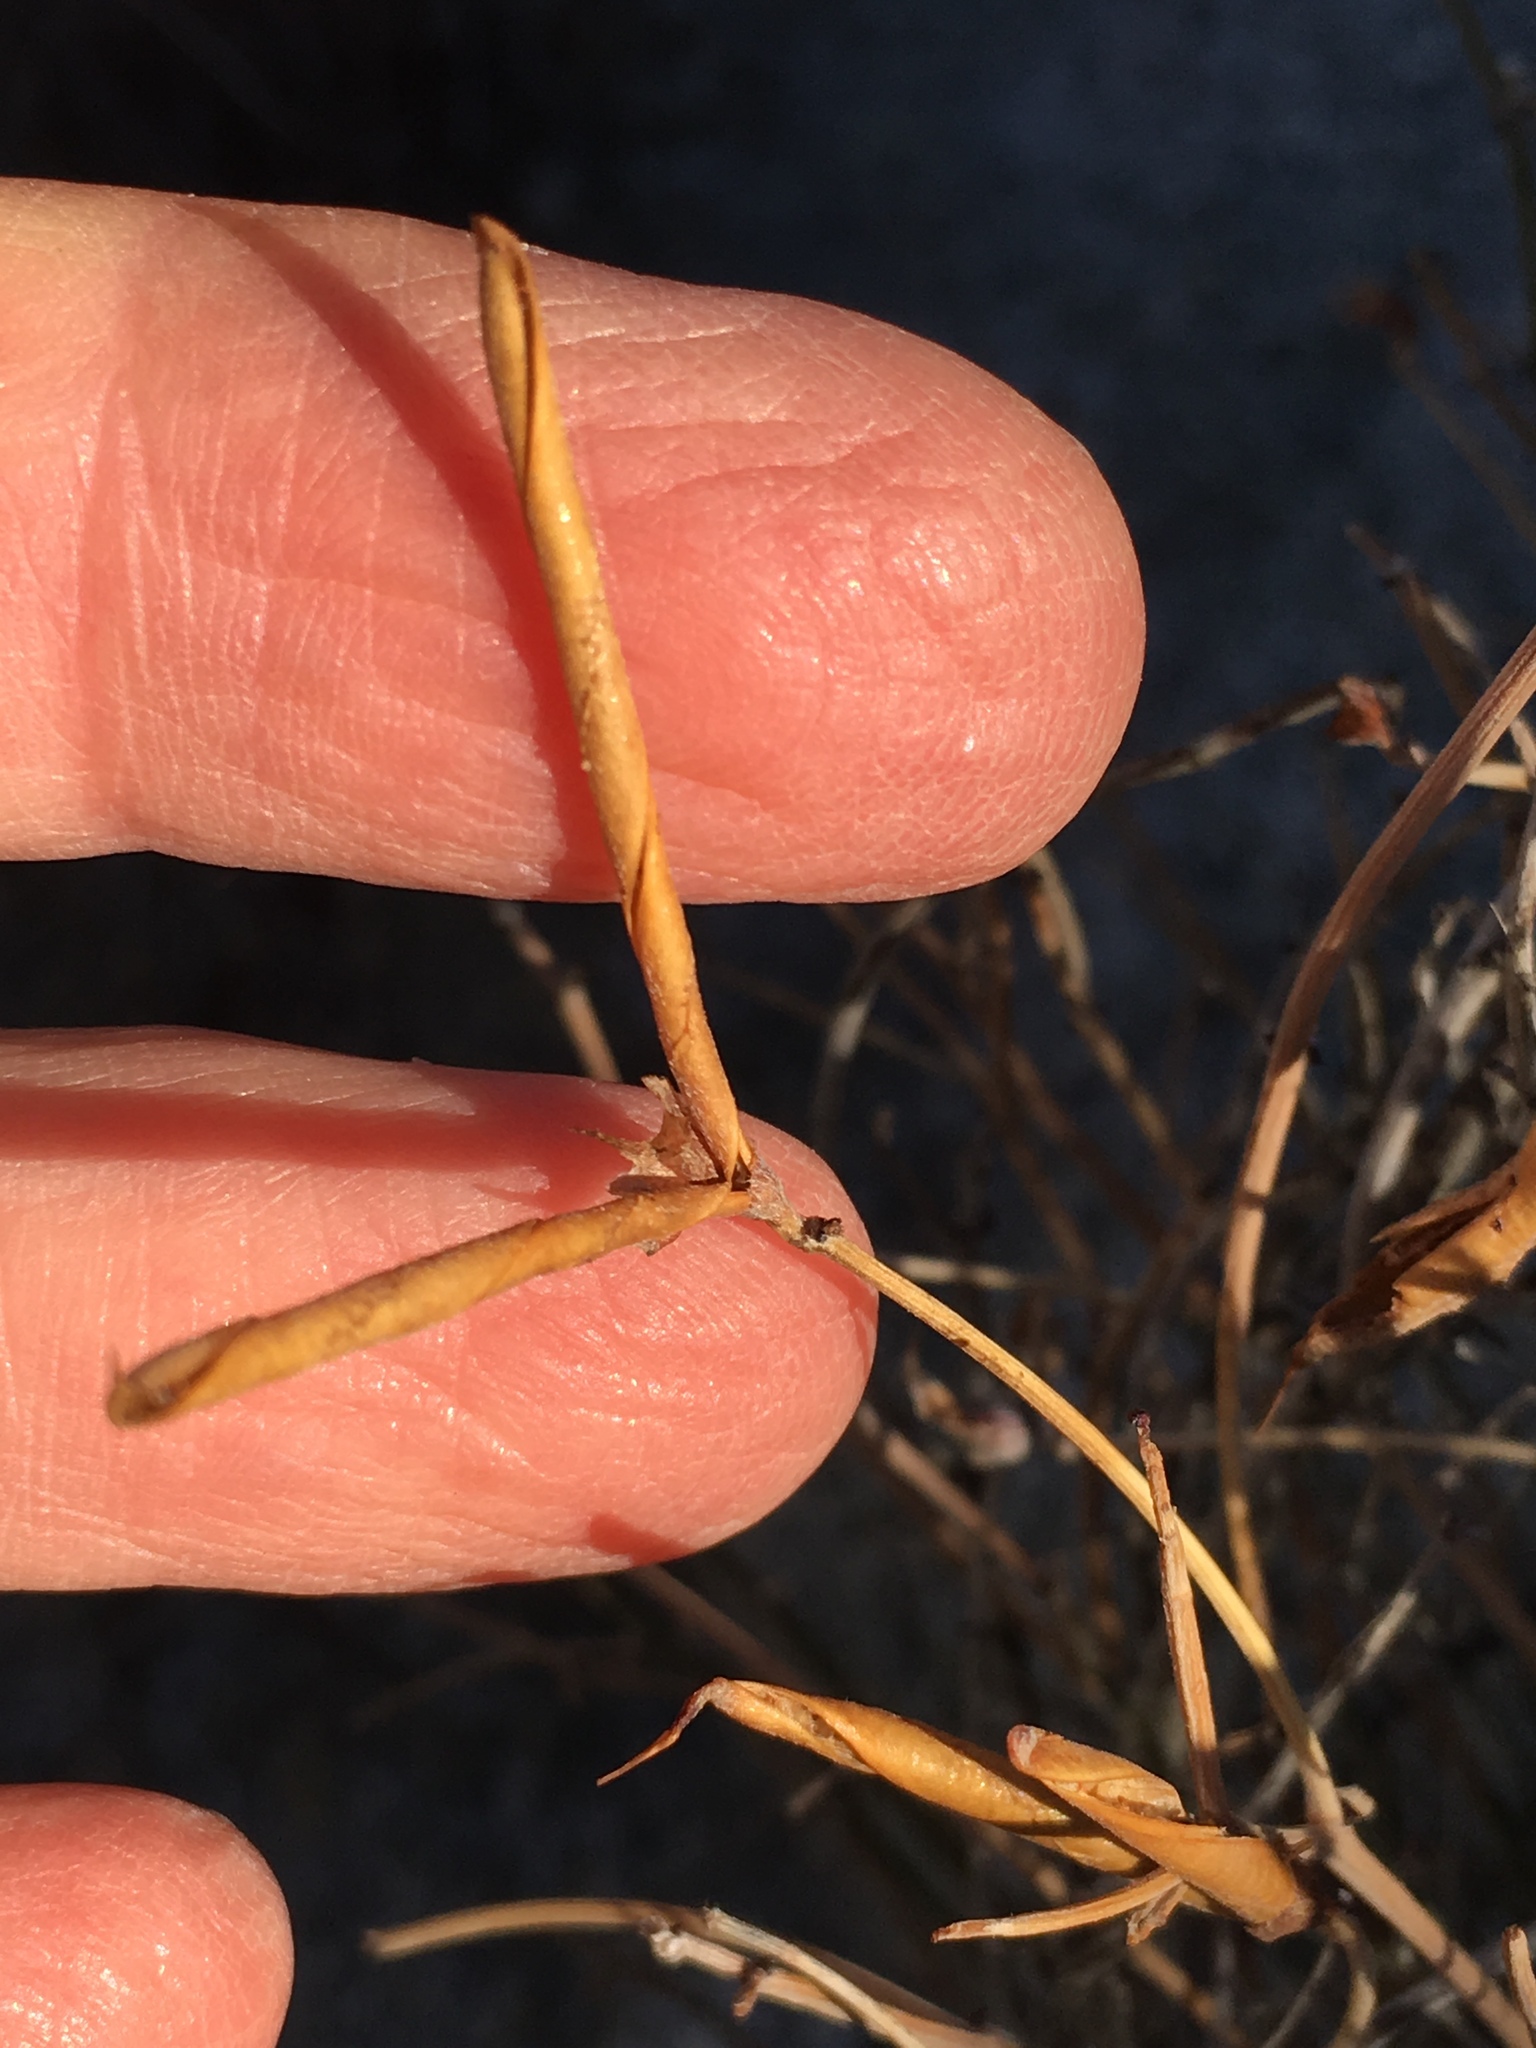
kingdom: Plantae
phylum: Tracheophyta
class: Magnoliopsida
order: Fabales
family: Fabaceae
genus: Acmispon
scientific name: Acmispon rigidus
